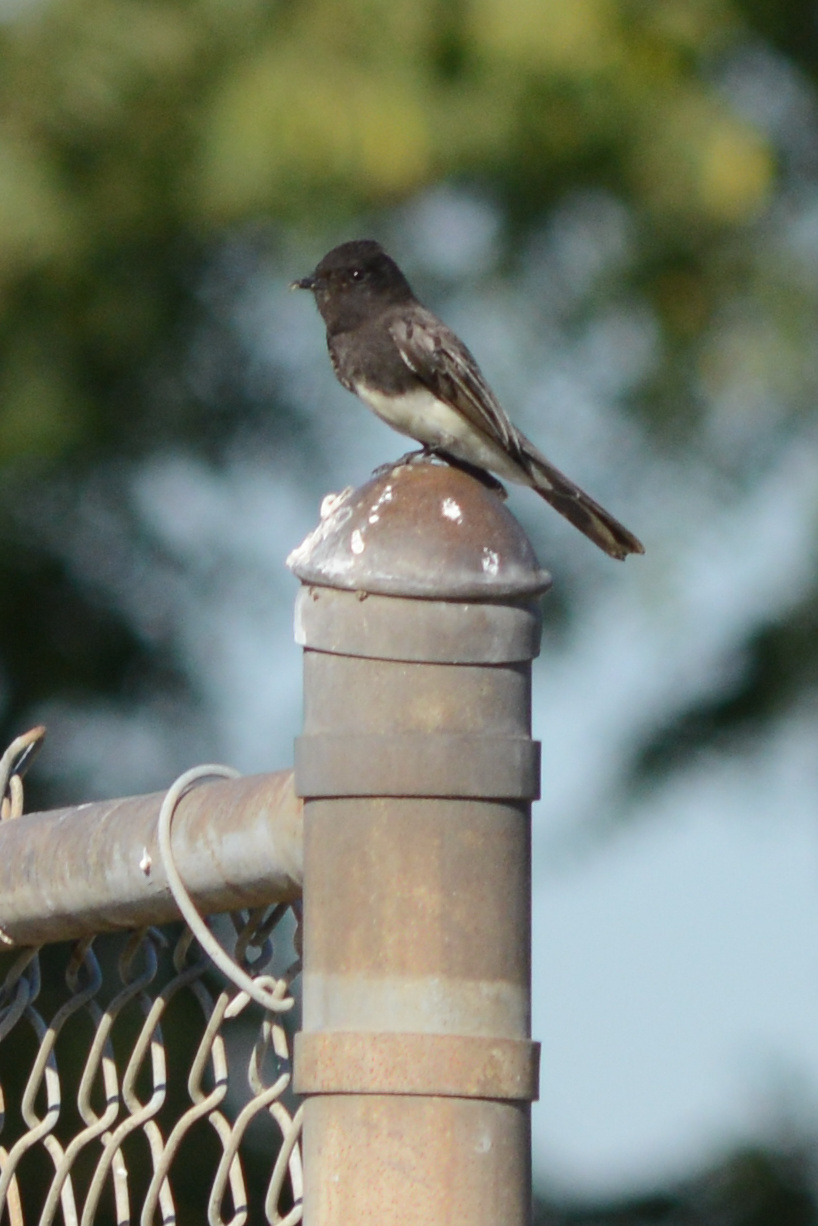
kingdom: Animalia
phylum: Chordata
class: Aves
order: Passeriformes
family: Tyrannidae
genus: Sayornis
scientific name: Sayornis nigricans
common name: Black phoebe
